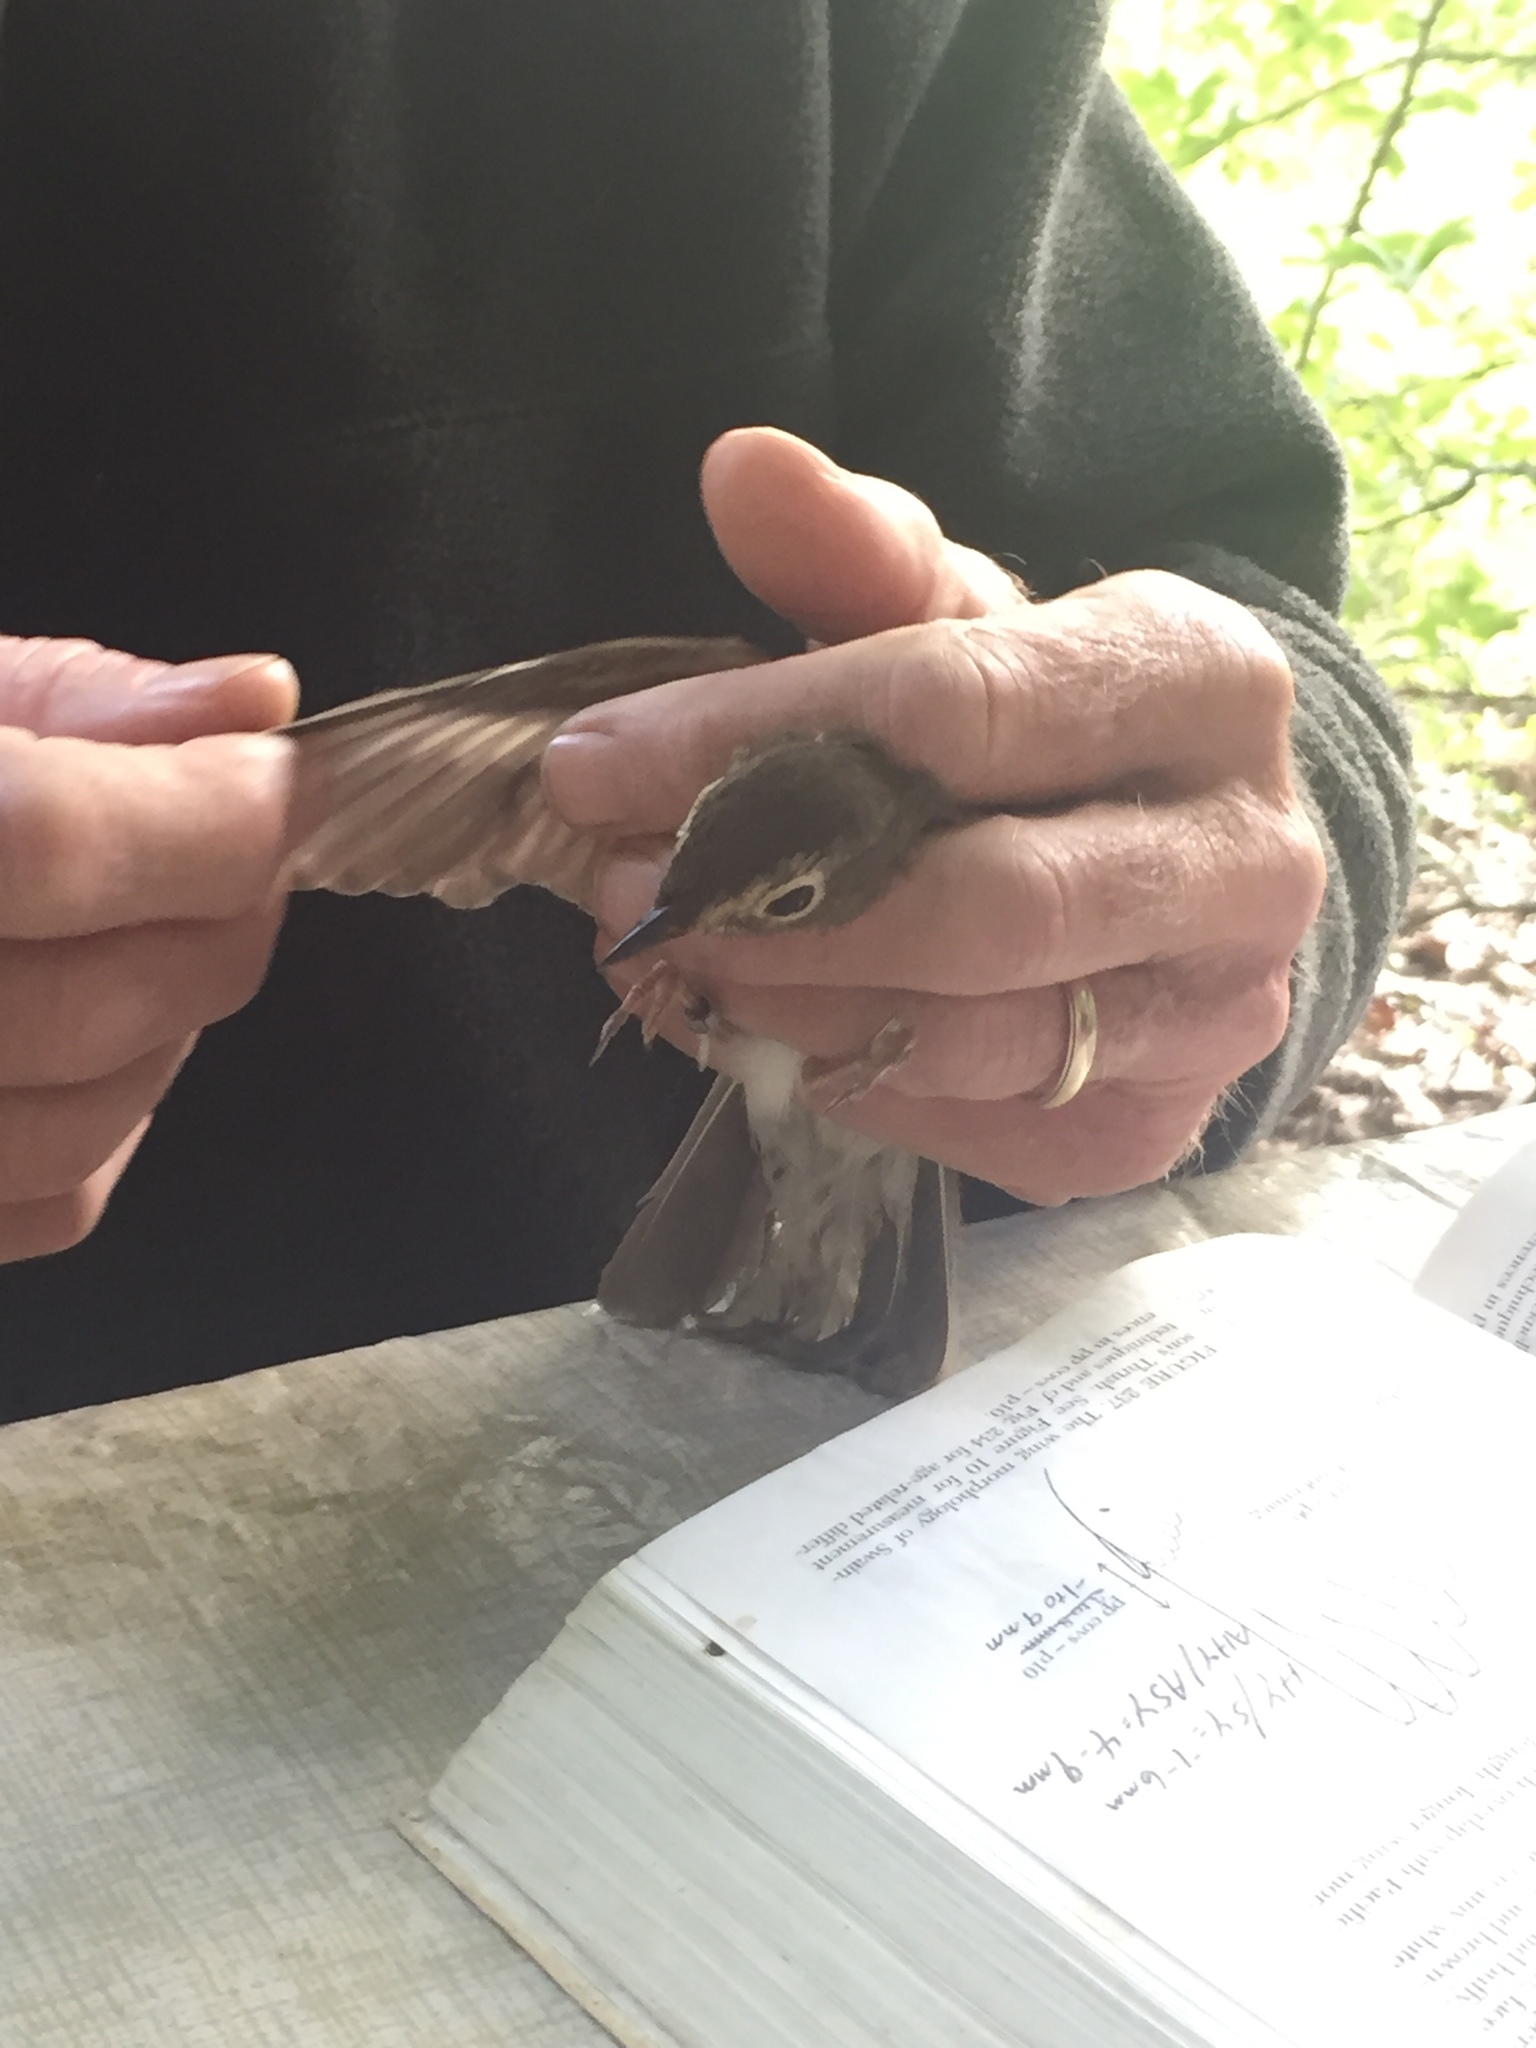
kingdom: Animalia
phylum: Chordata
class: Aves
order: Passeriformes
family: Turdidae
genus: Catharus
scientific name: Catharus ustulatus
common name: Swainson's thrush
